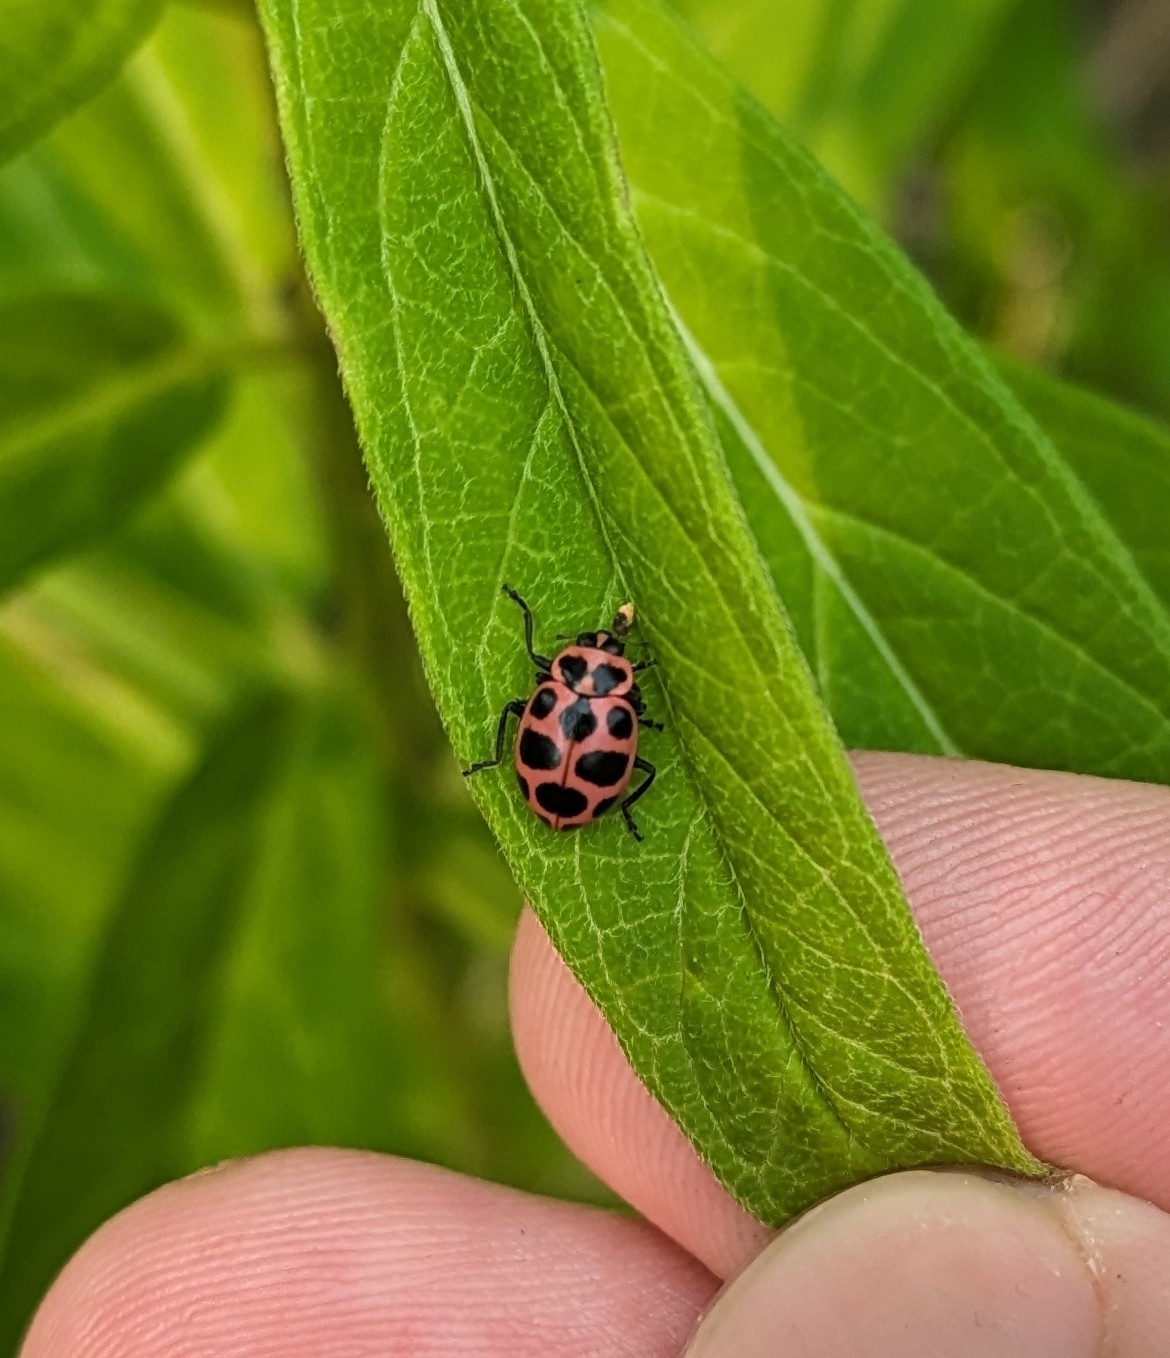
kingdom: Animalia
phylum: Arthropoda
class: Insecta
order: Coleoptera
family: Coccinellidae
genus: Coleomegilla
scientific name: Coleomegilla maculata
